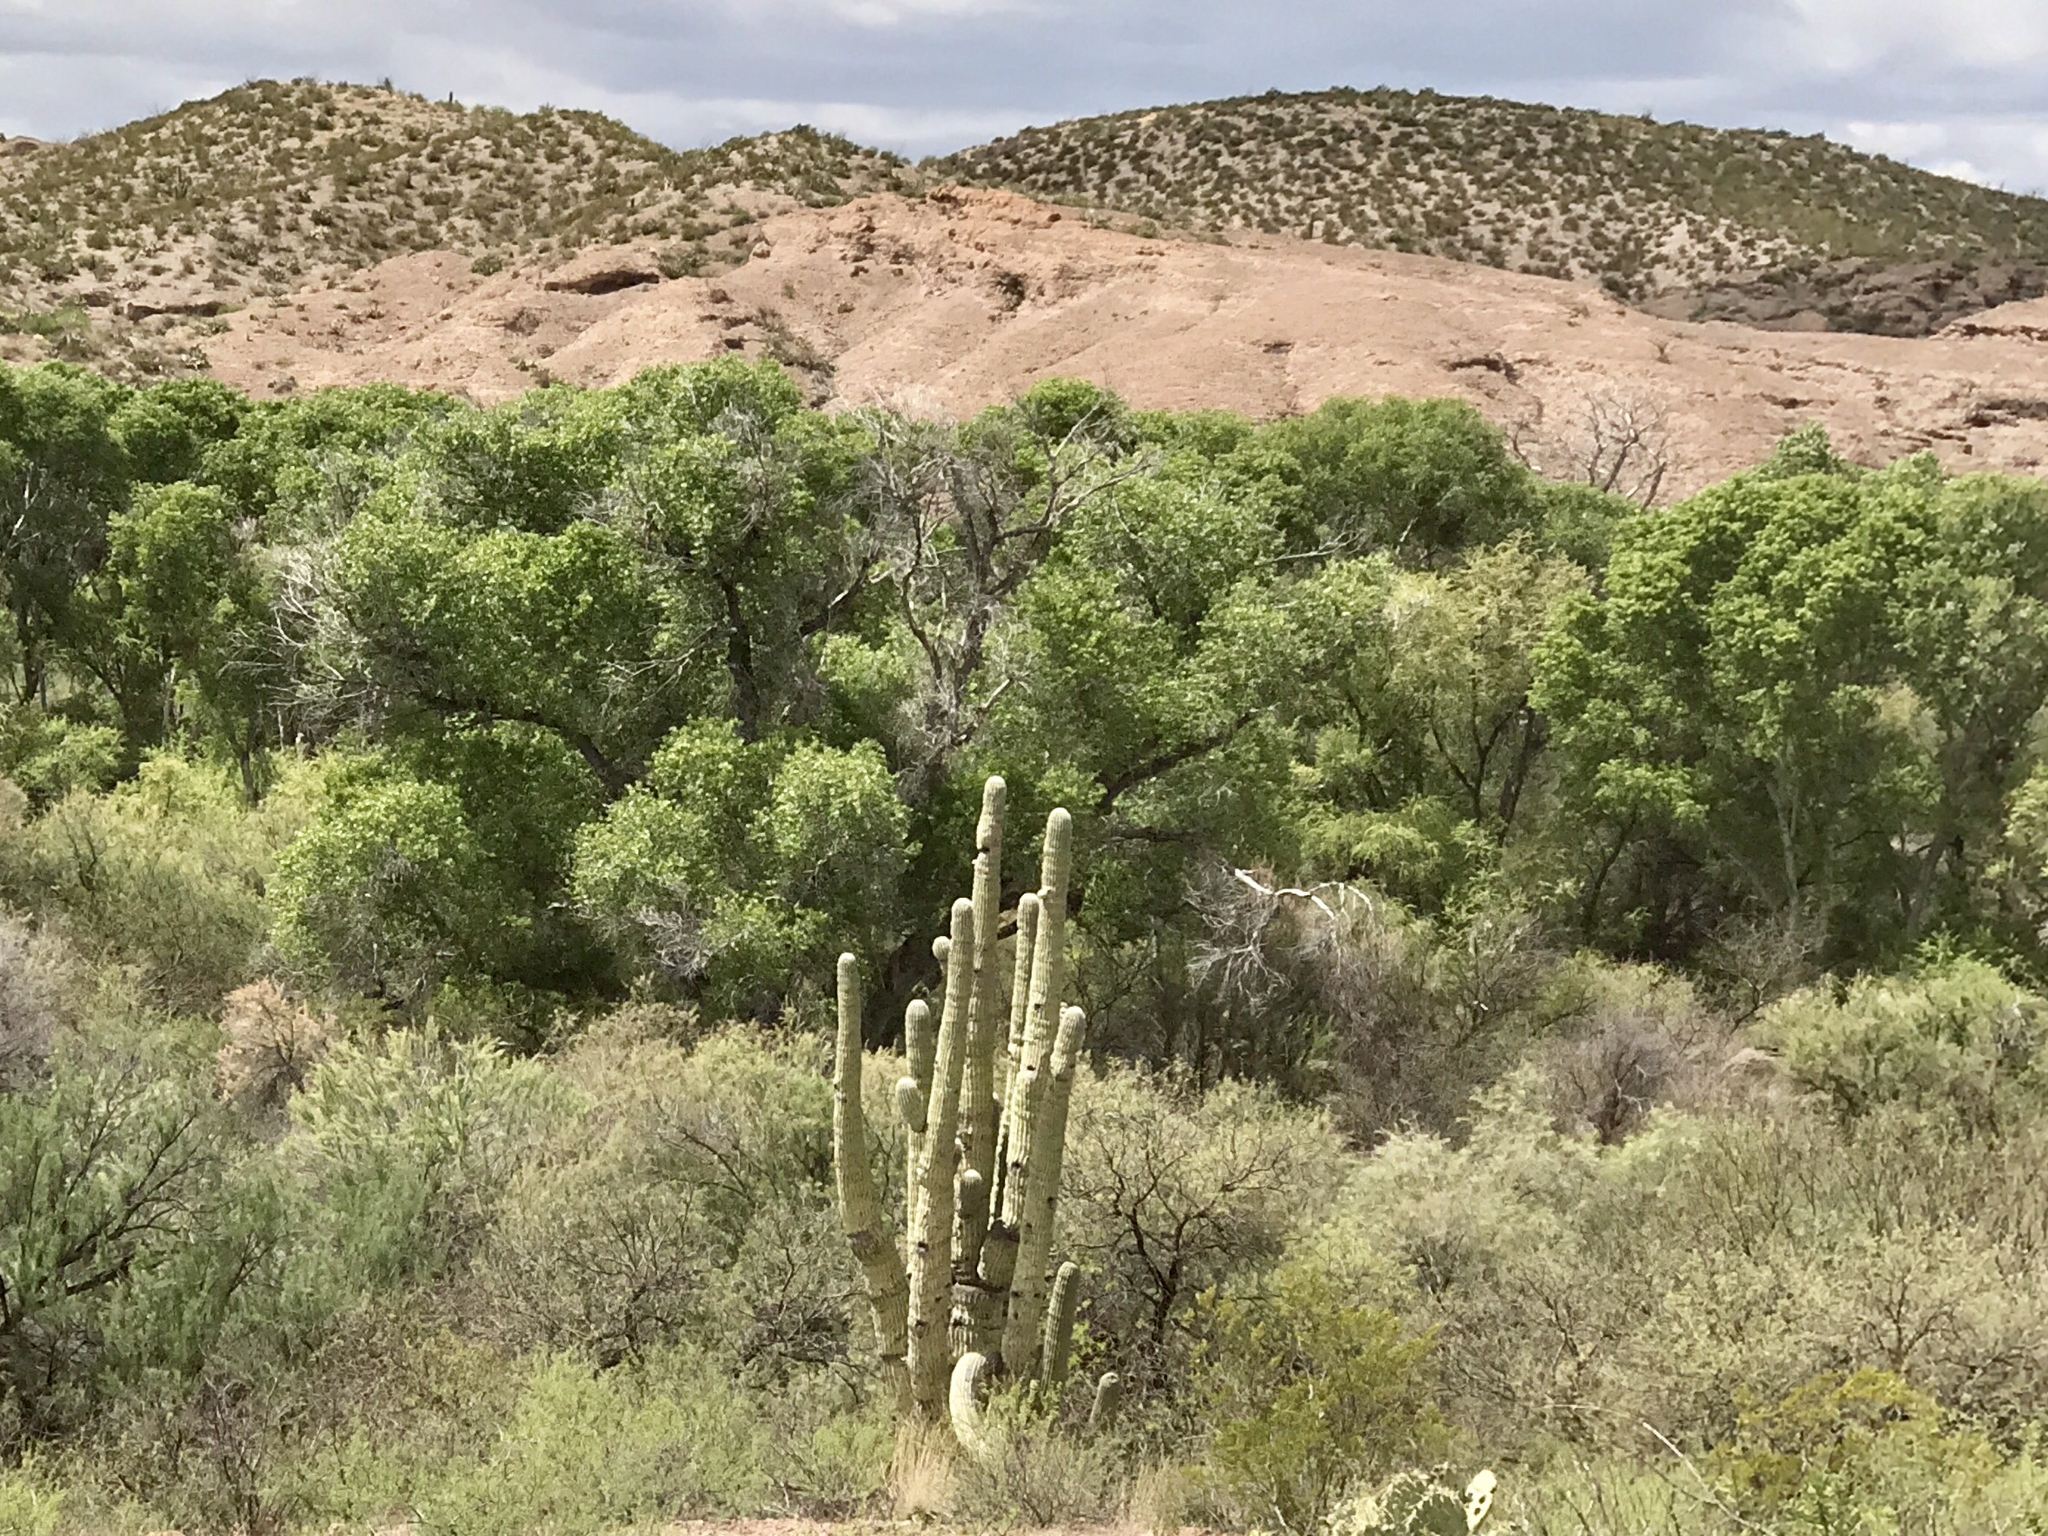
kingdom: Plantae
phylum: Tracheophyta
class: Magnoliopsida
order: Caryophyllales
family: Cactaceae
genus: Carnegiea
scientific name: Carnegiea gigantea
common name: Saguaro
